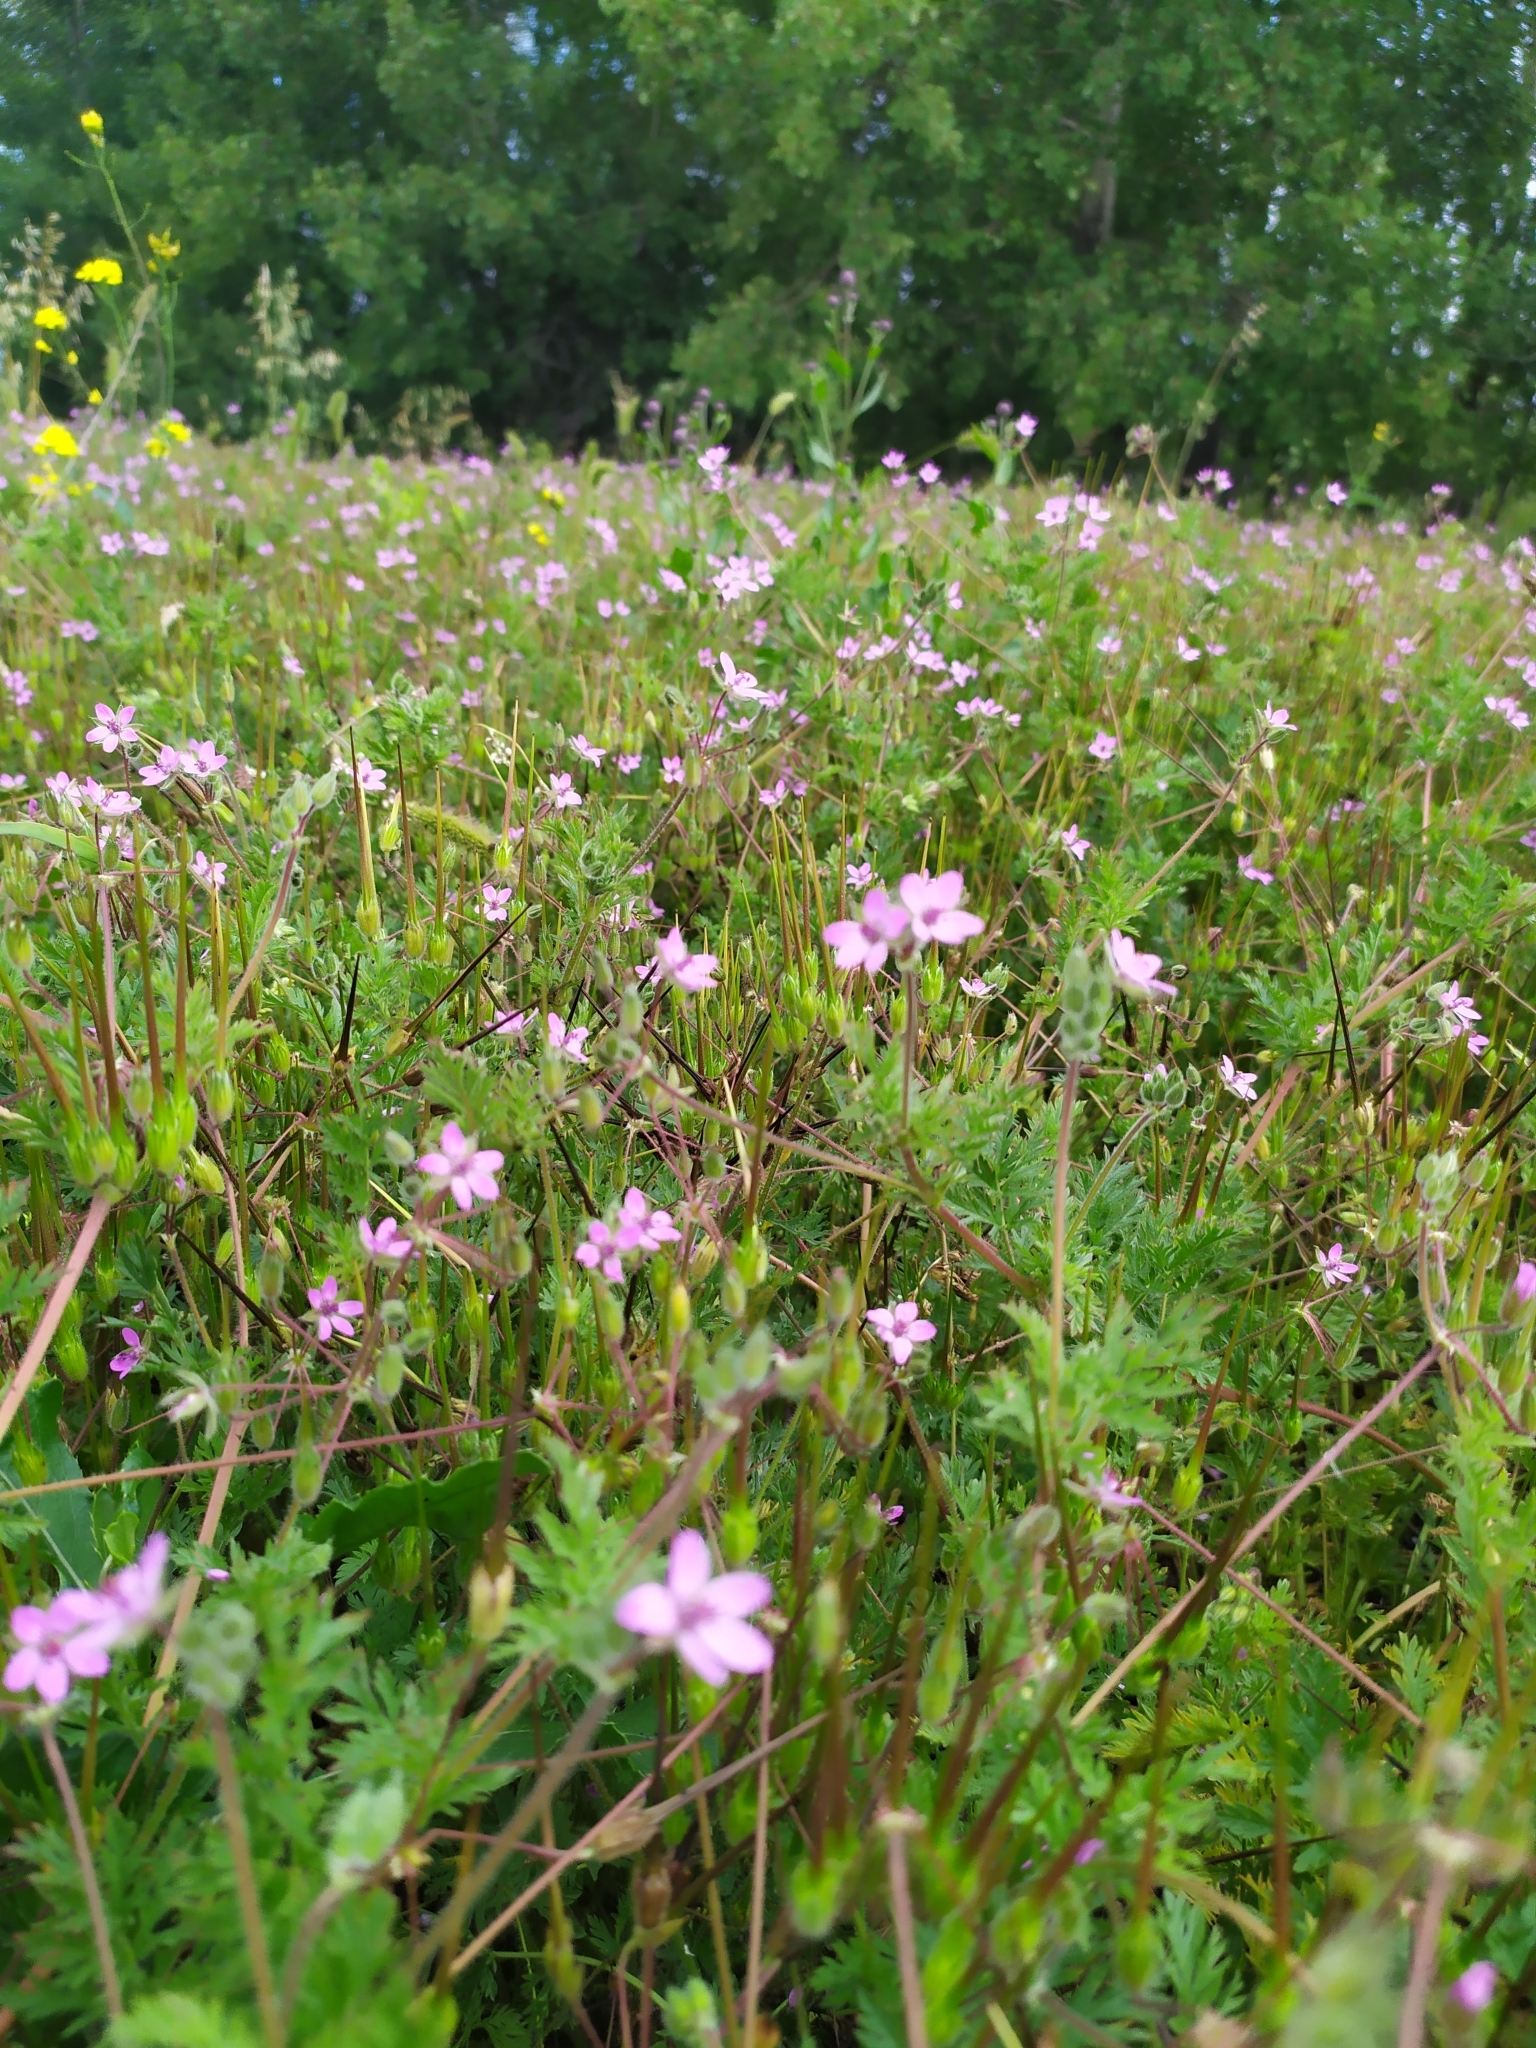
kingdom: Plantae
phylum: Tracheophyta
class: Magnoliopsida
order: Geraniales
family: Geraniaceae
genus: Erodium
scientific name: Erodium cicutarium
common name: Common stork's-bill
